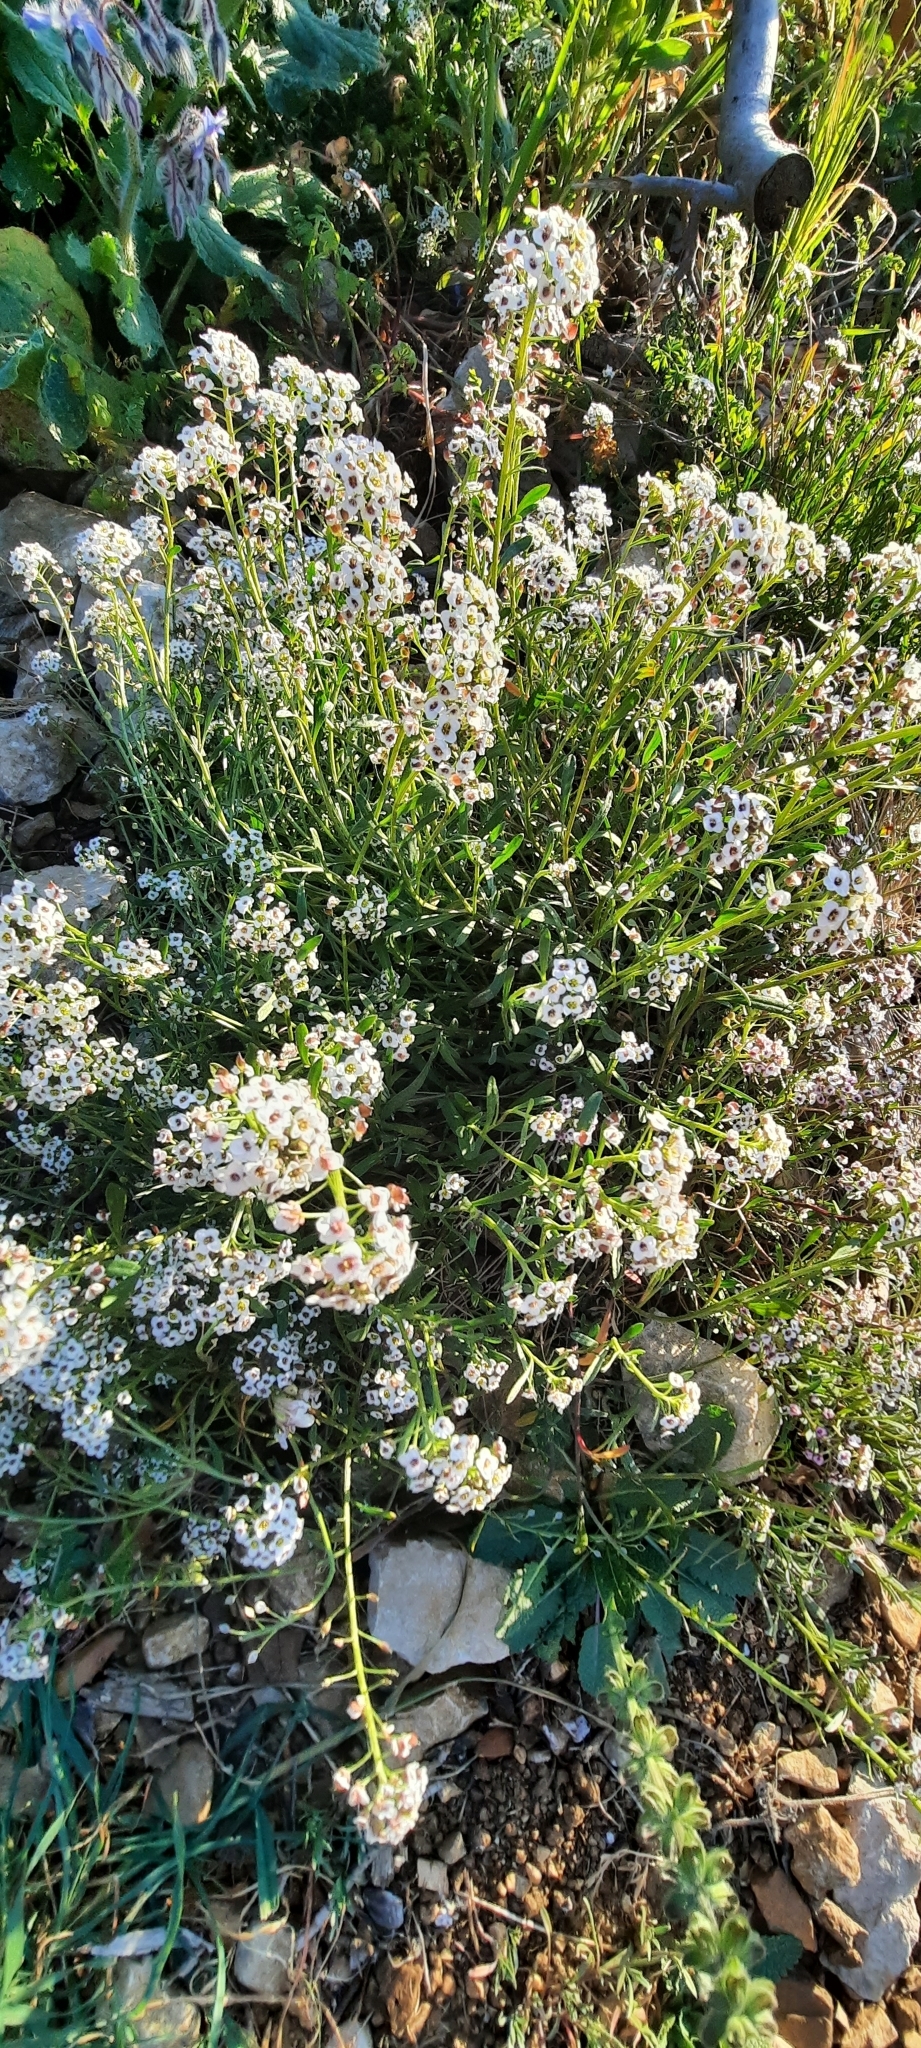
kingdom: Plantae
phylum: Tracheophyta
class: Magnoliopsida
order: Brassicales
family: Brassicaceae
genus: Lobularia
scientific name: Lobularia maritima
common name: Sweet alison
